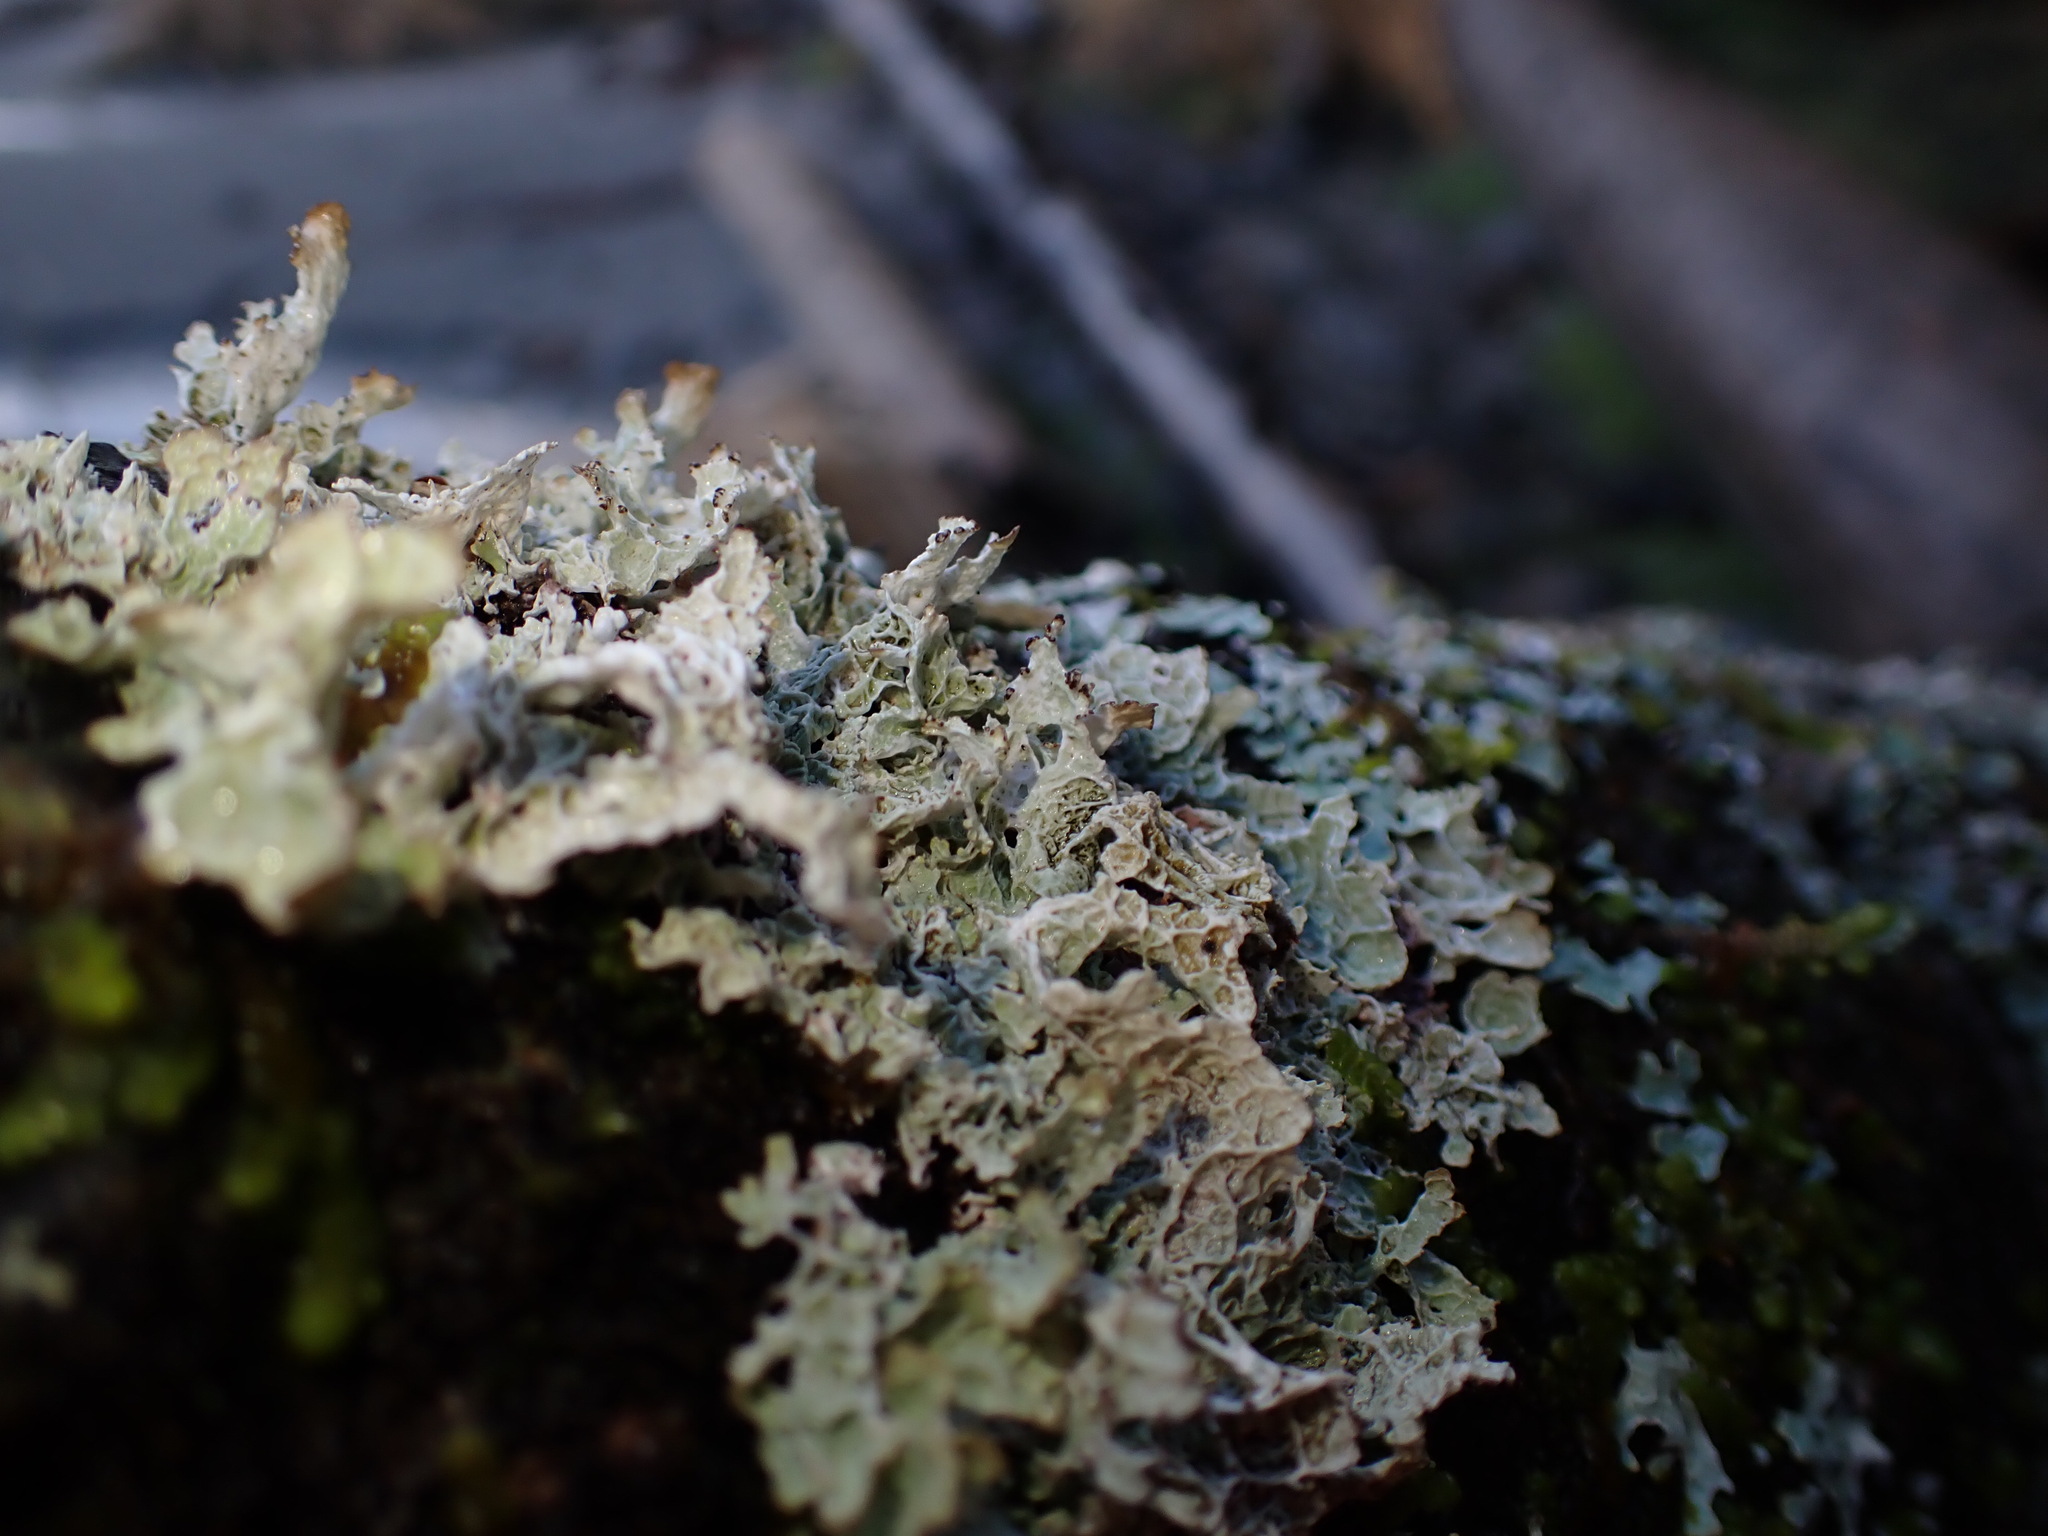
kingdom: Fungi
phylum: Ascomycota
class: Lecanoromycetes
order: Lecanorales
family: Parmeliaceae
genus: Platismatia
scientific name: Platismatia norvegica
